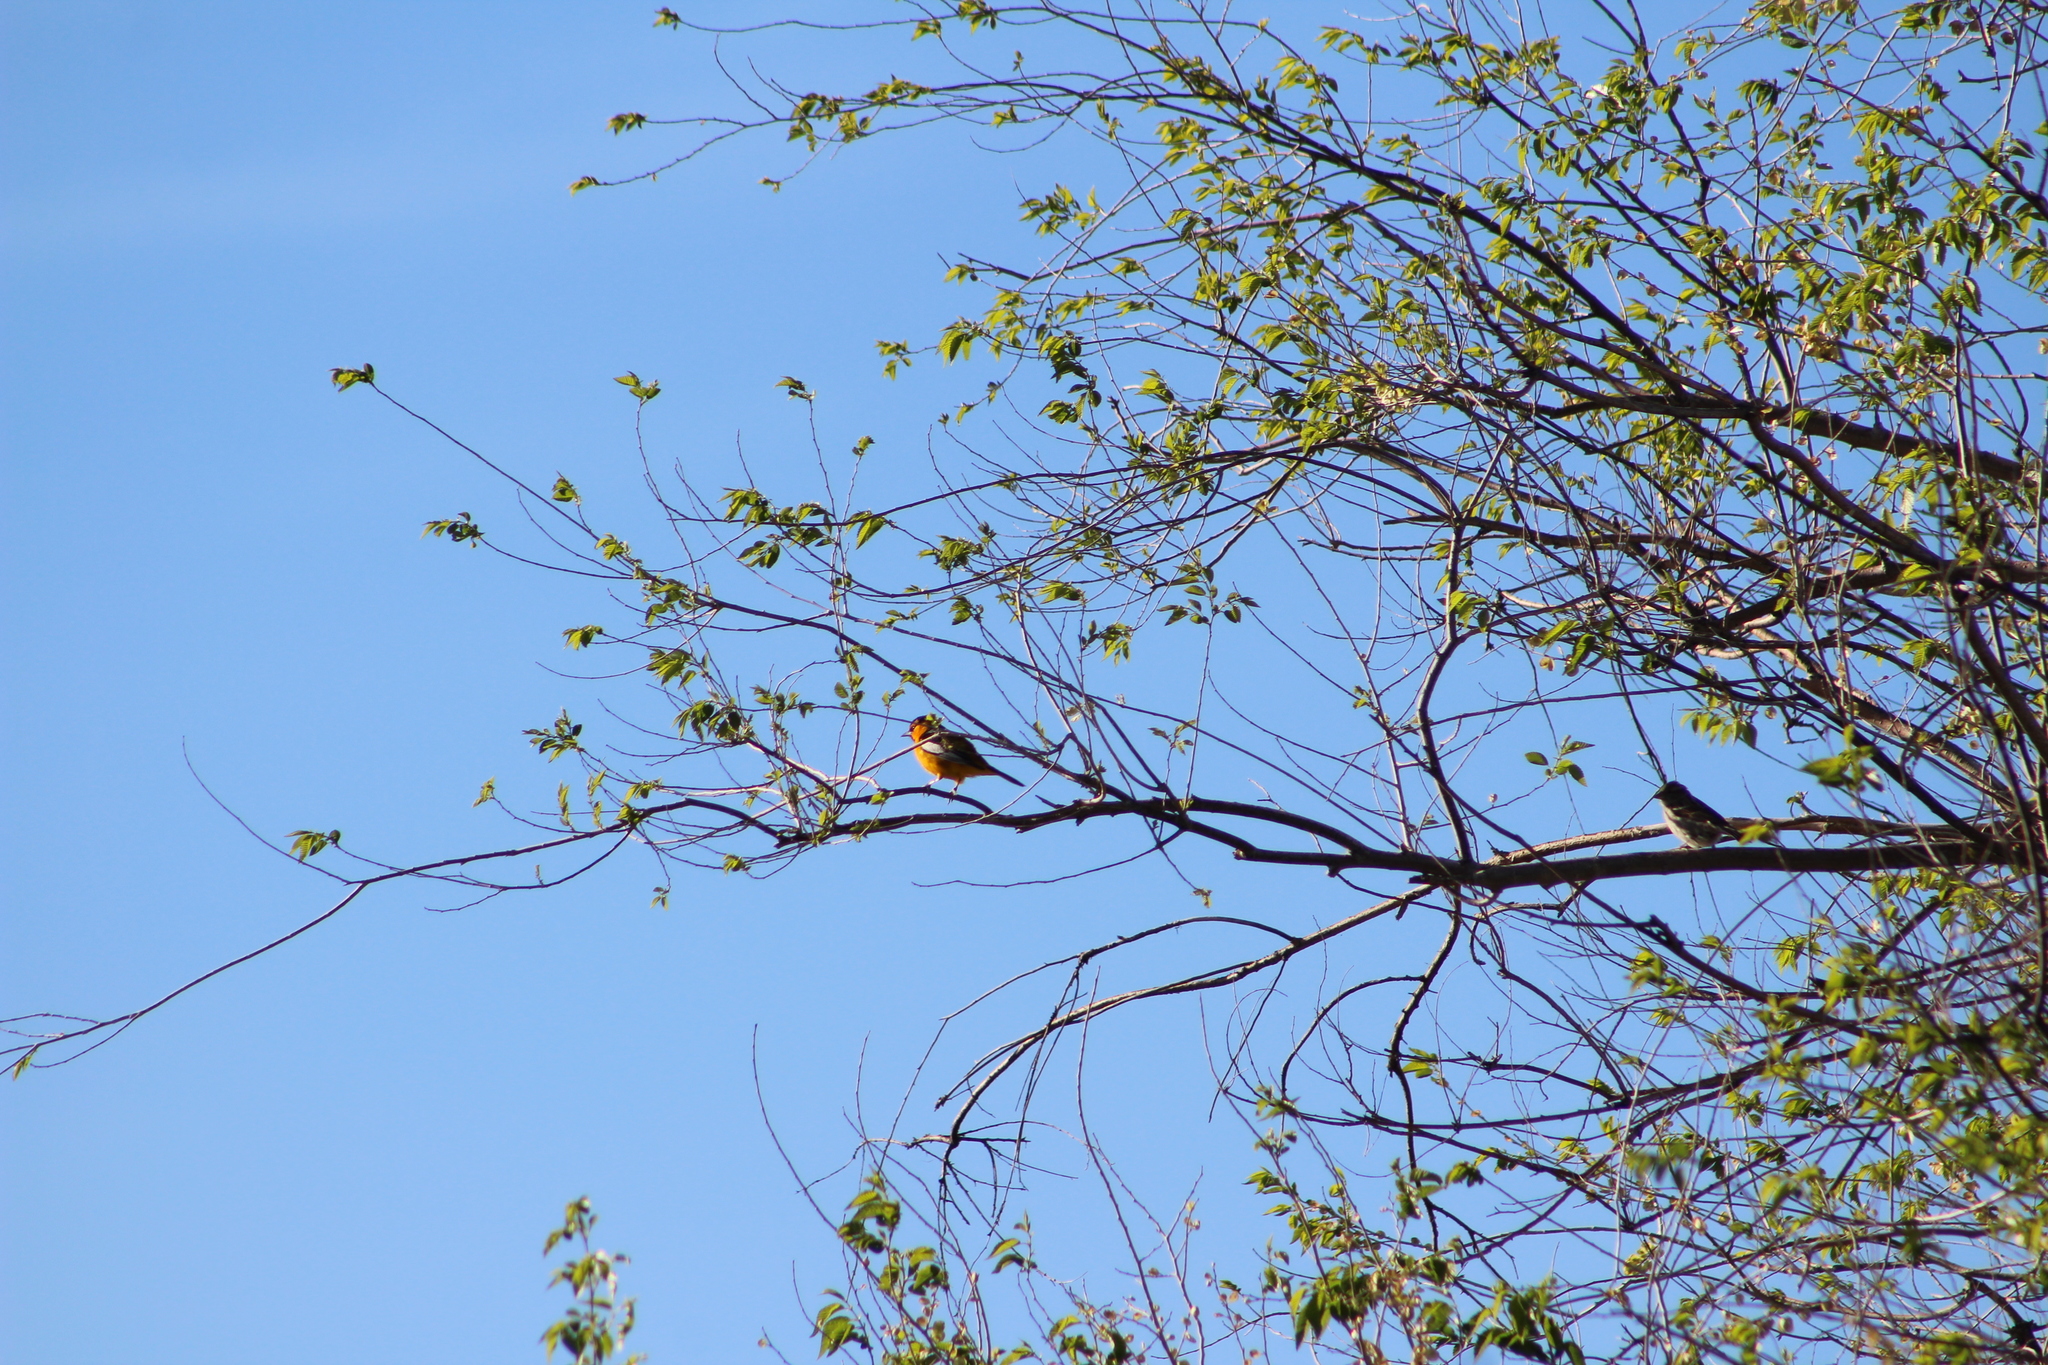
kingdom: Animalia
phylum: Chordata
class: Aves
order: Passeriformes
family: Icteridae
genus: Icterus
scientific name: Icterus bullockii
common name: Bullock's oriole
